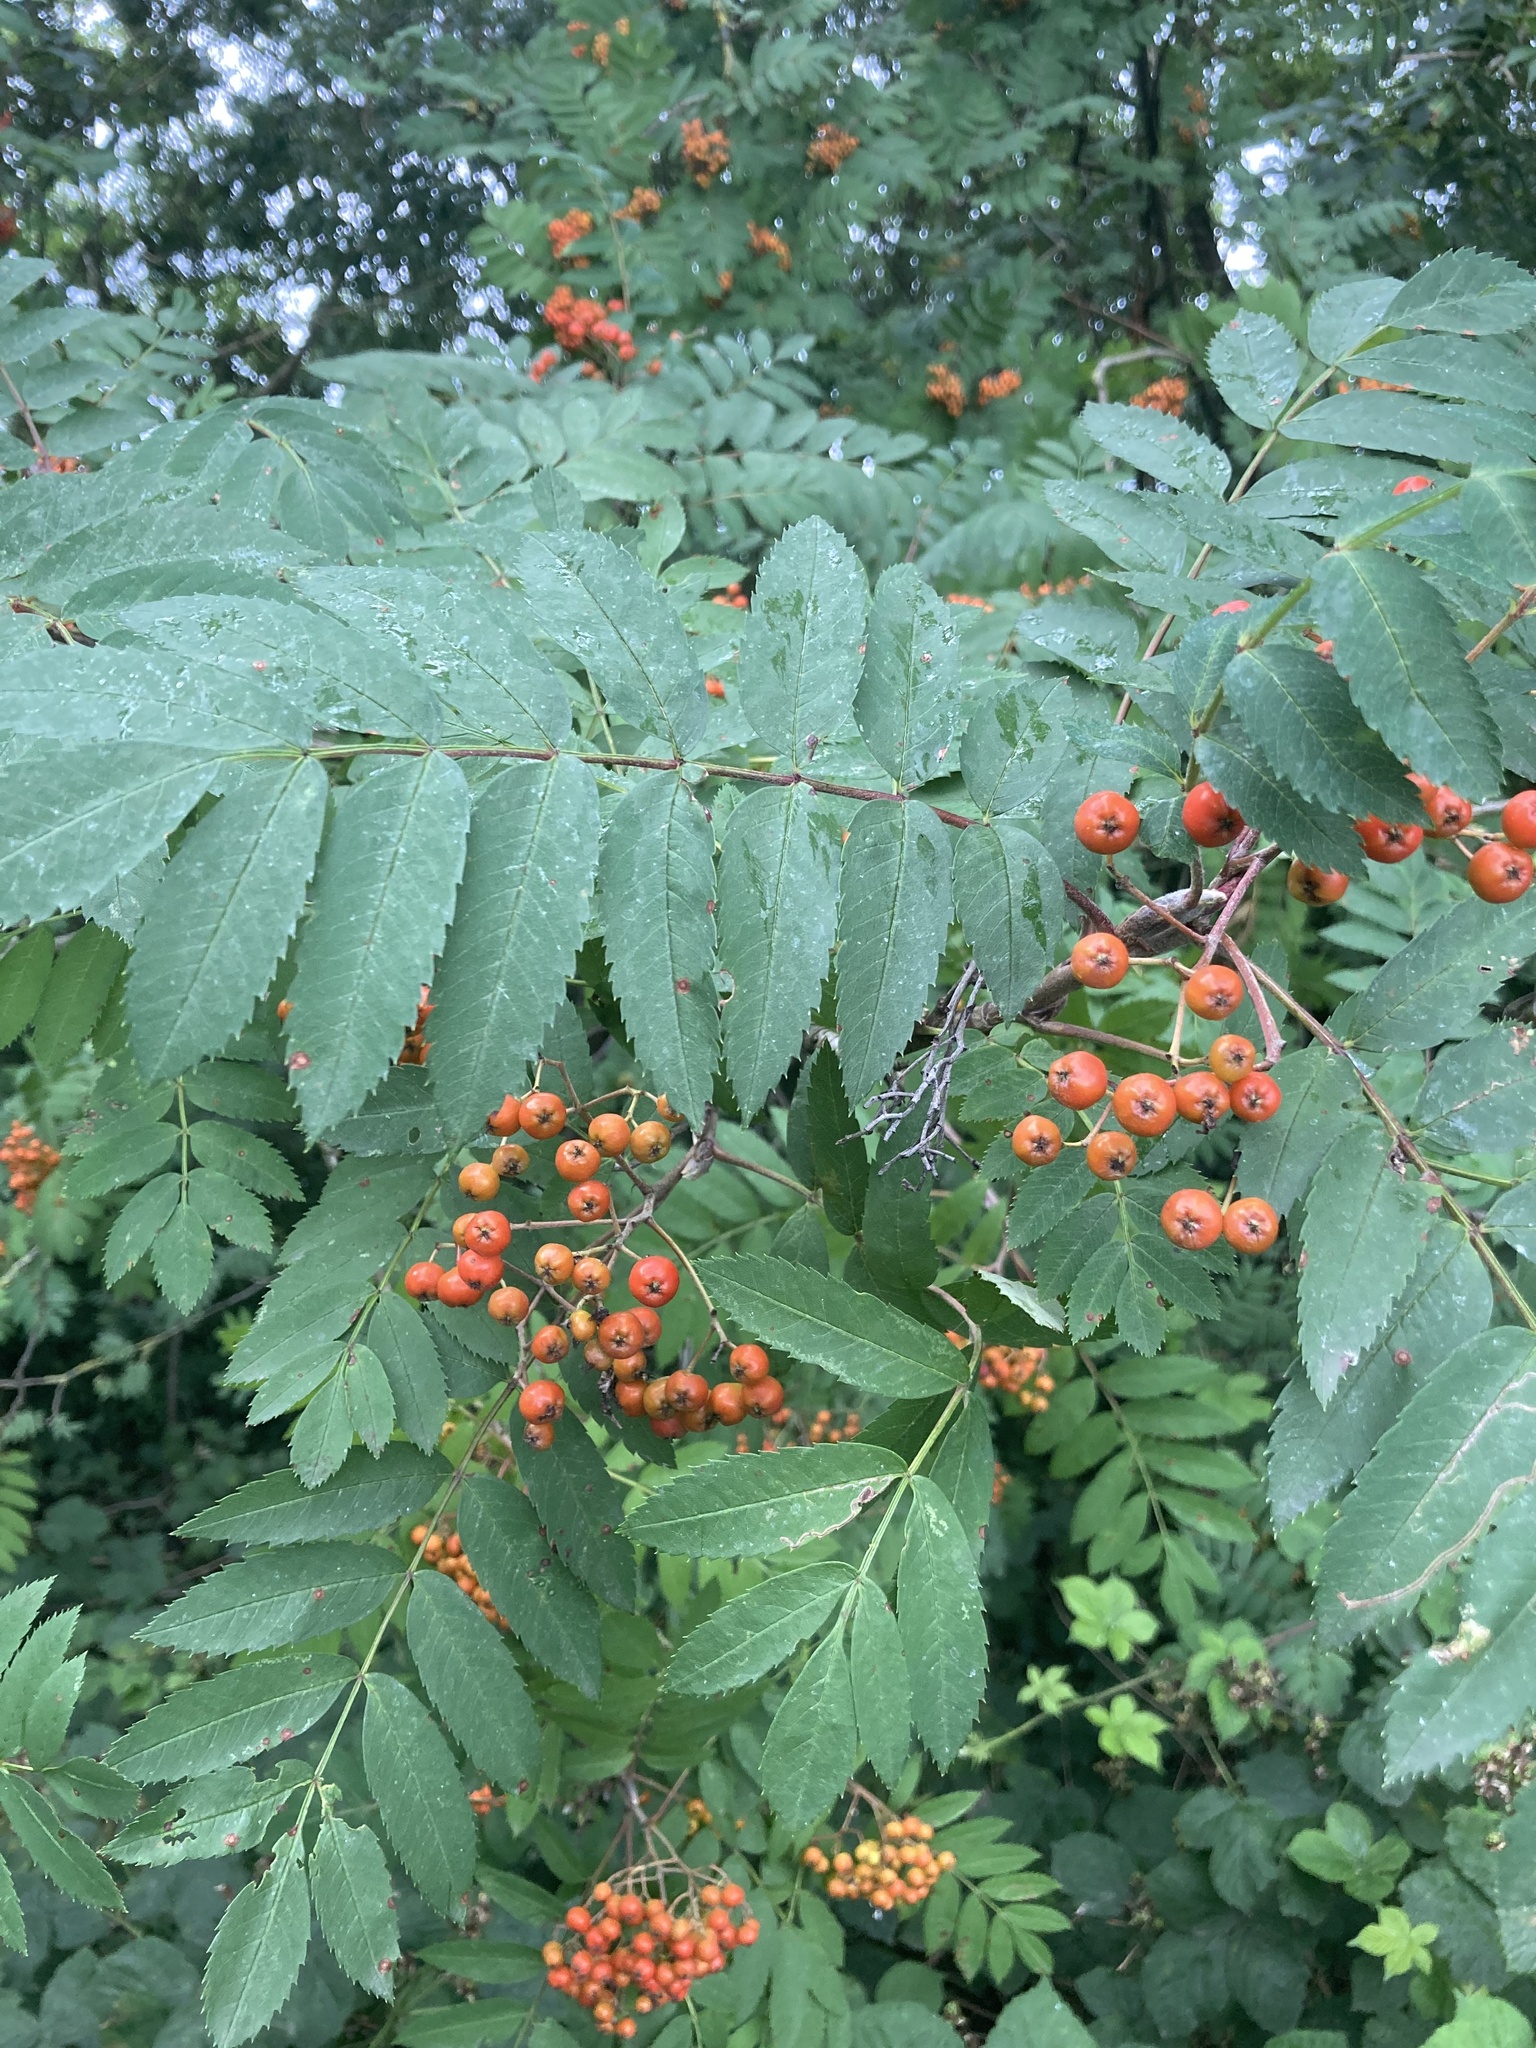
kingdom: Plantae
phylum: Tracheophyta
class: Magnoliopsida
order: Rosales
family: Rosaceae
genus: Sorbus
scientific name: Sorbus aucuparia
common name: Rowan
